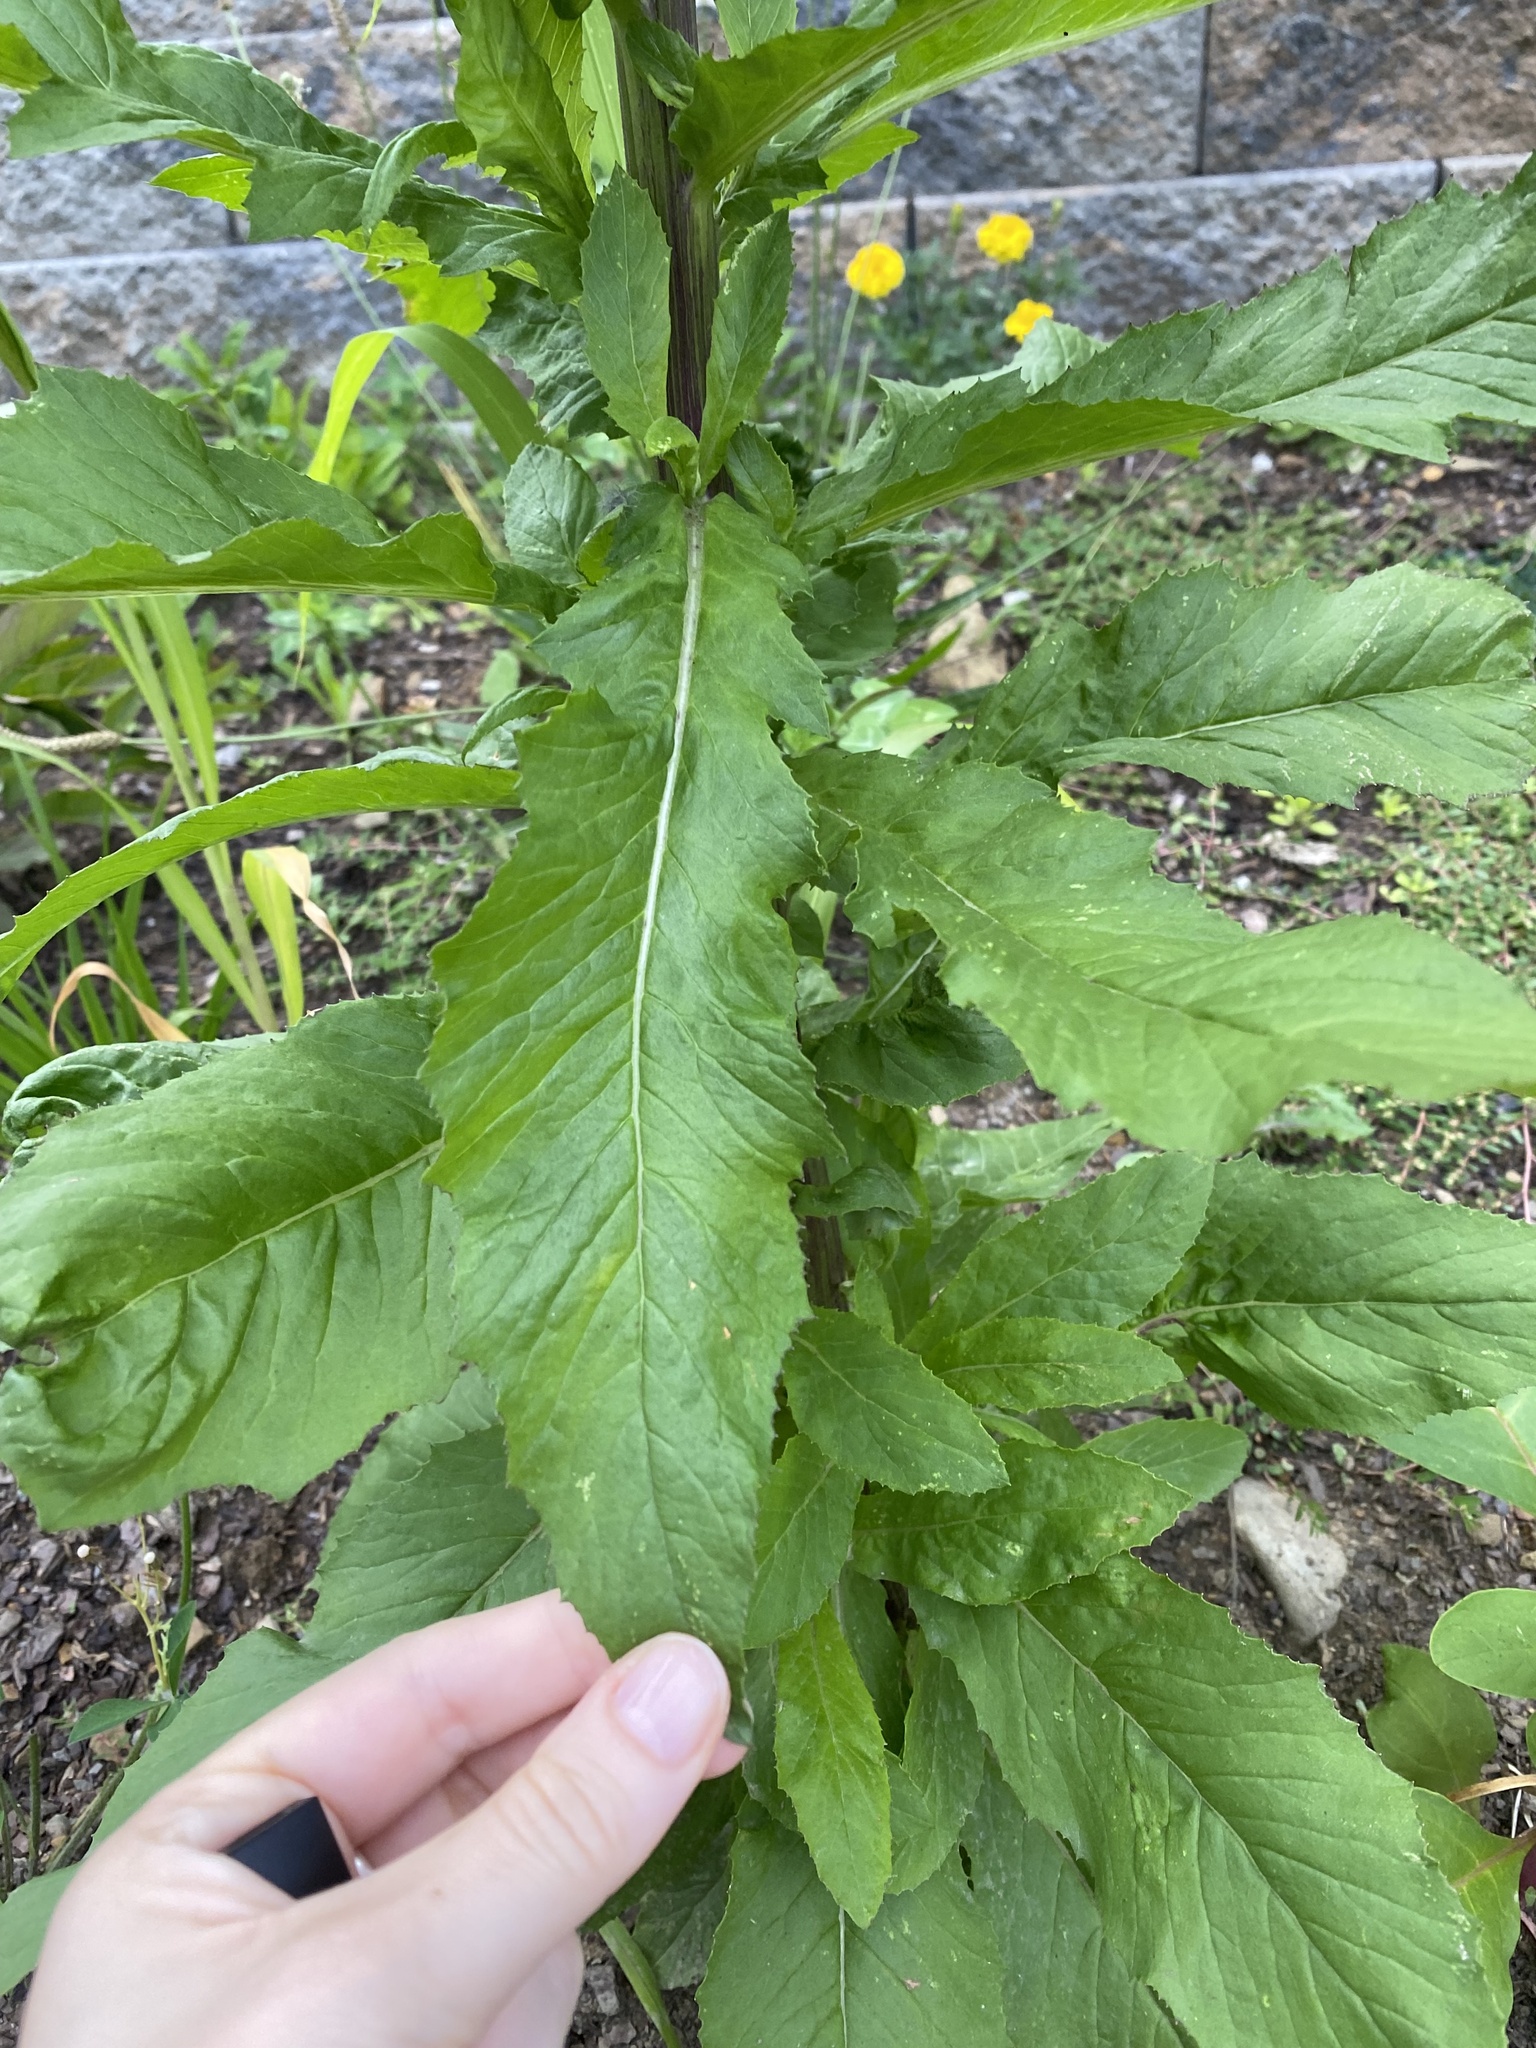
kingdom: Plantae
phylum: Tracheophyta
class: Magnoliopsida
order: Asterales
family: Asteraceae
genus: Erechtites
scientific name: Erechtites hieraciifolius
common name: American burnweed
